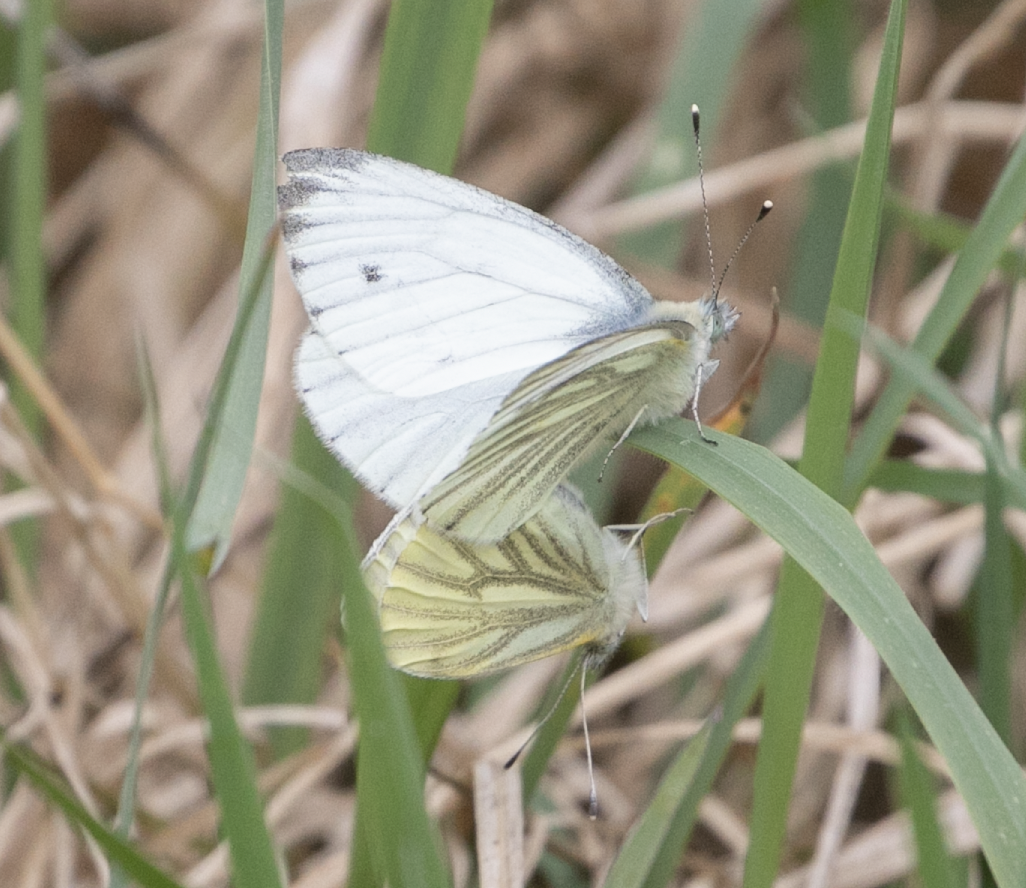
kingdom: Animalia
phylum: Arthropoda
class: Insecta
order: Lepidoptera
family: Pieridae
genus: Pieris
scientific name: Pieris napi
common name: Green-veined white
